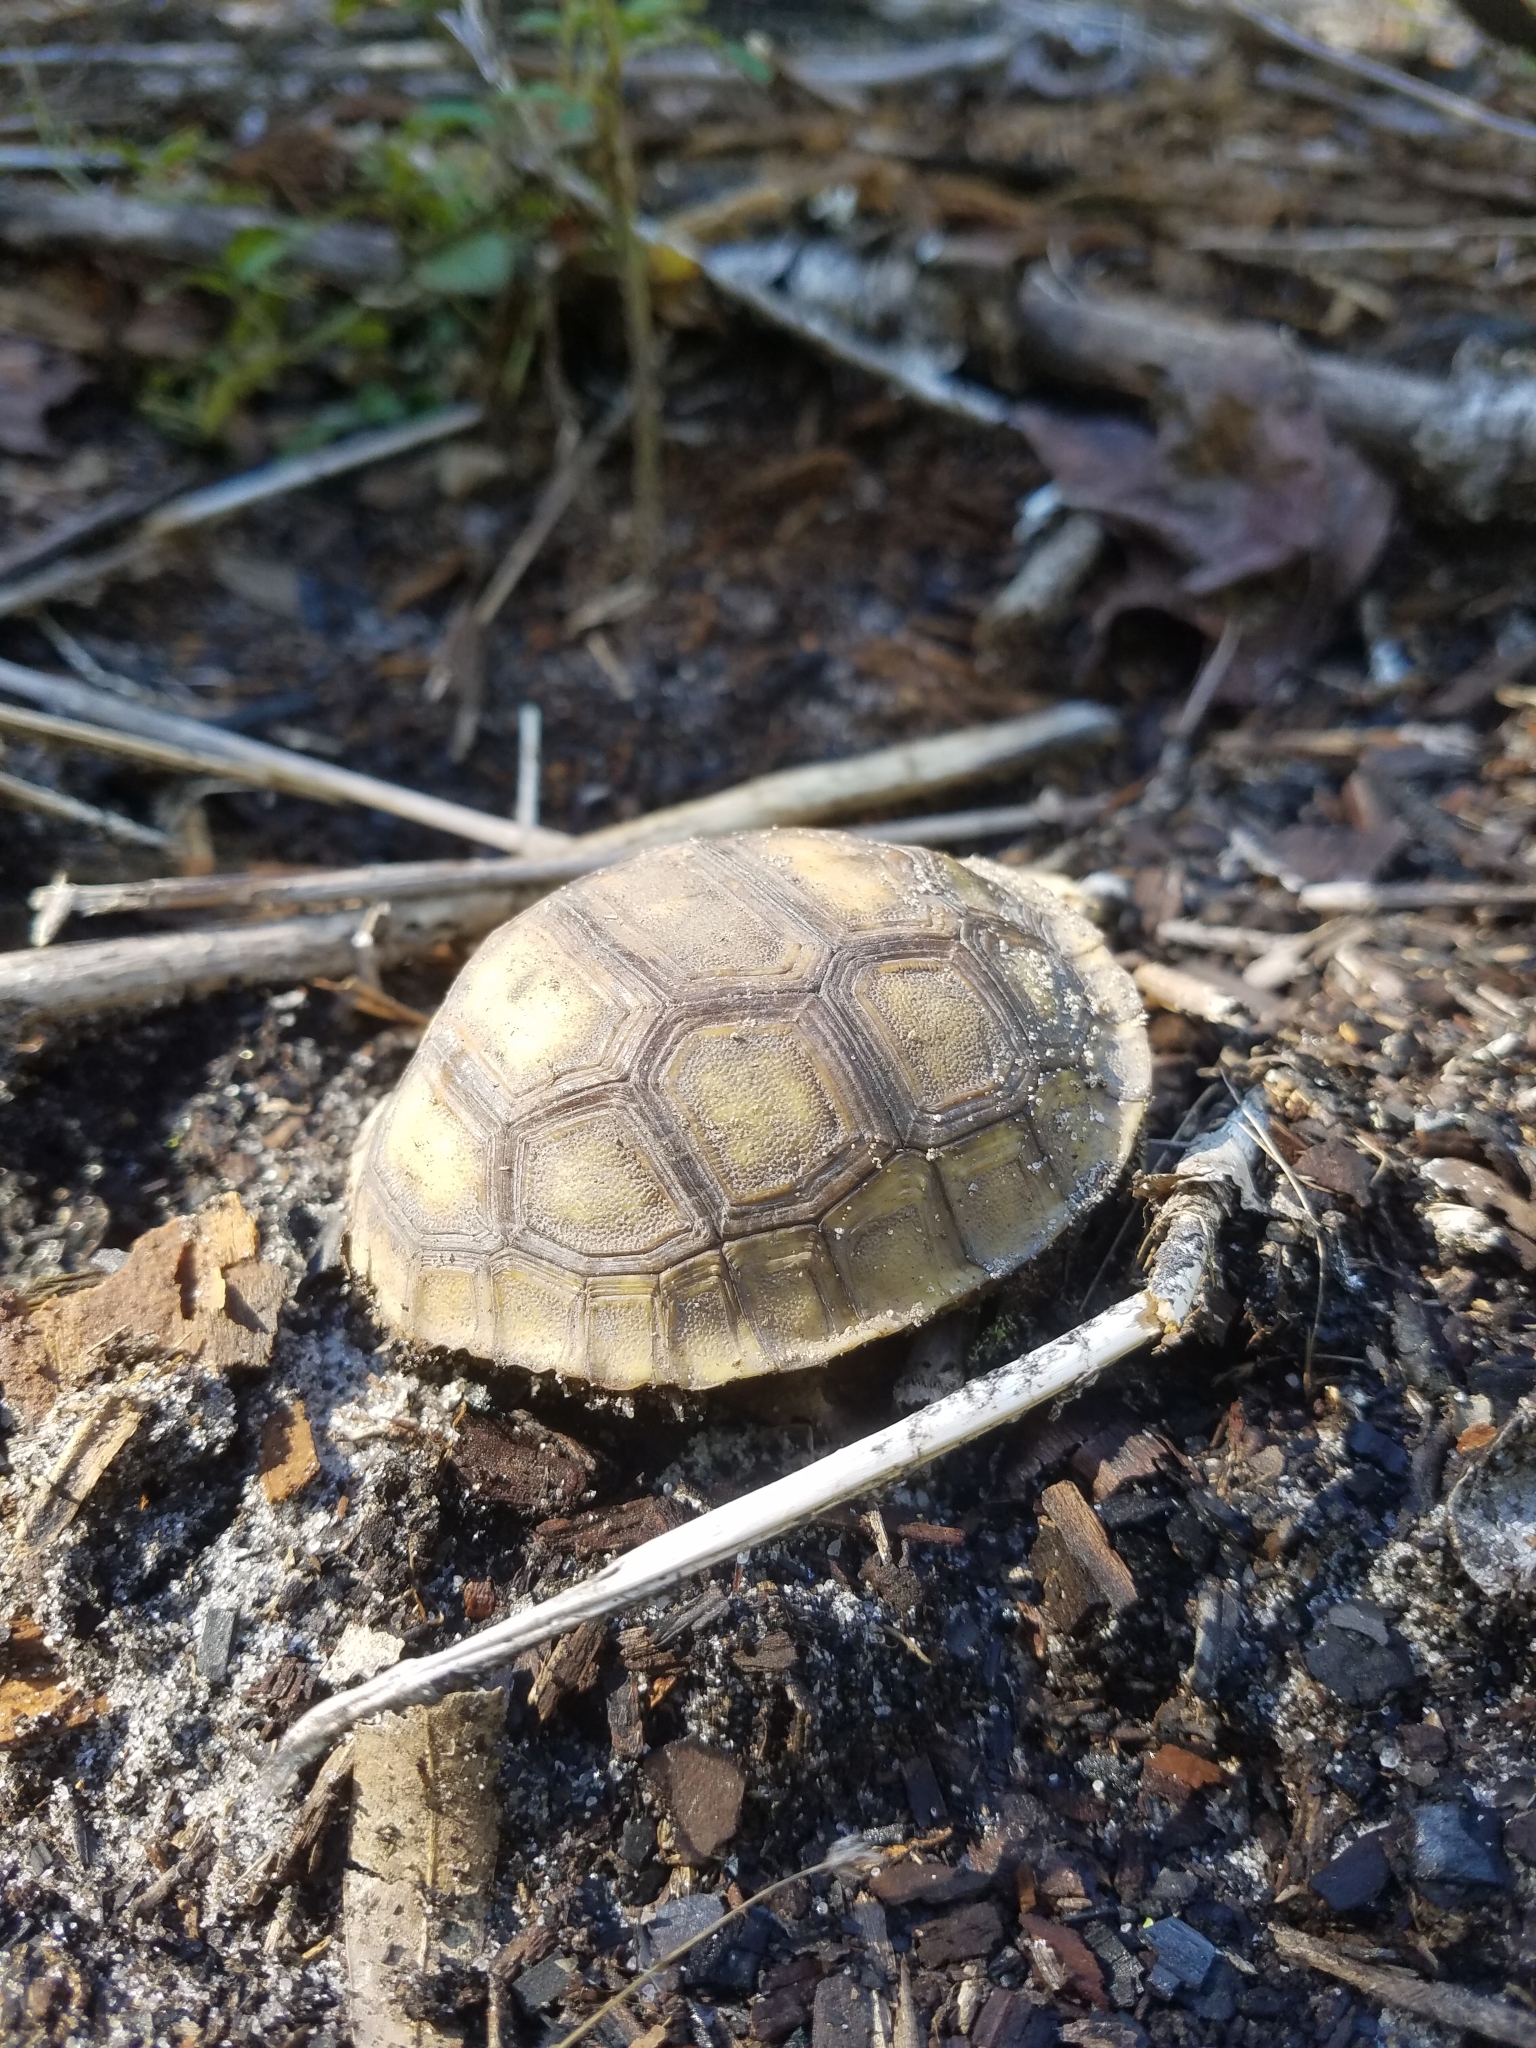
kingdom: Animalia
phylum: Chordata
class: Testudines
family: Testudinidae
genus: Gopherus
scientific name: Gopherus polyphemus
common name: Florida gopher tortoise
